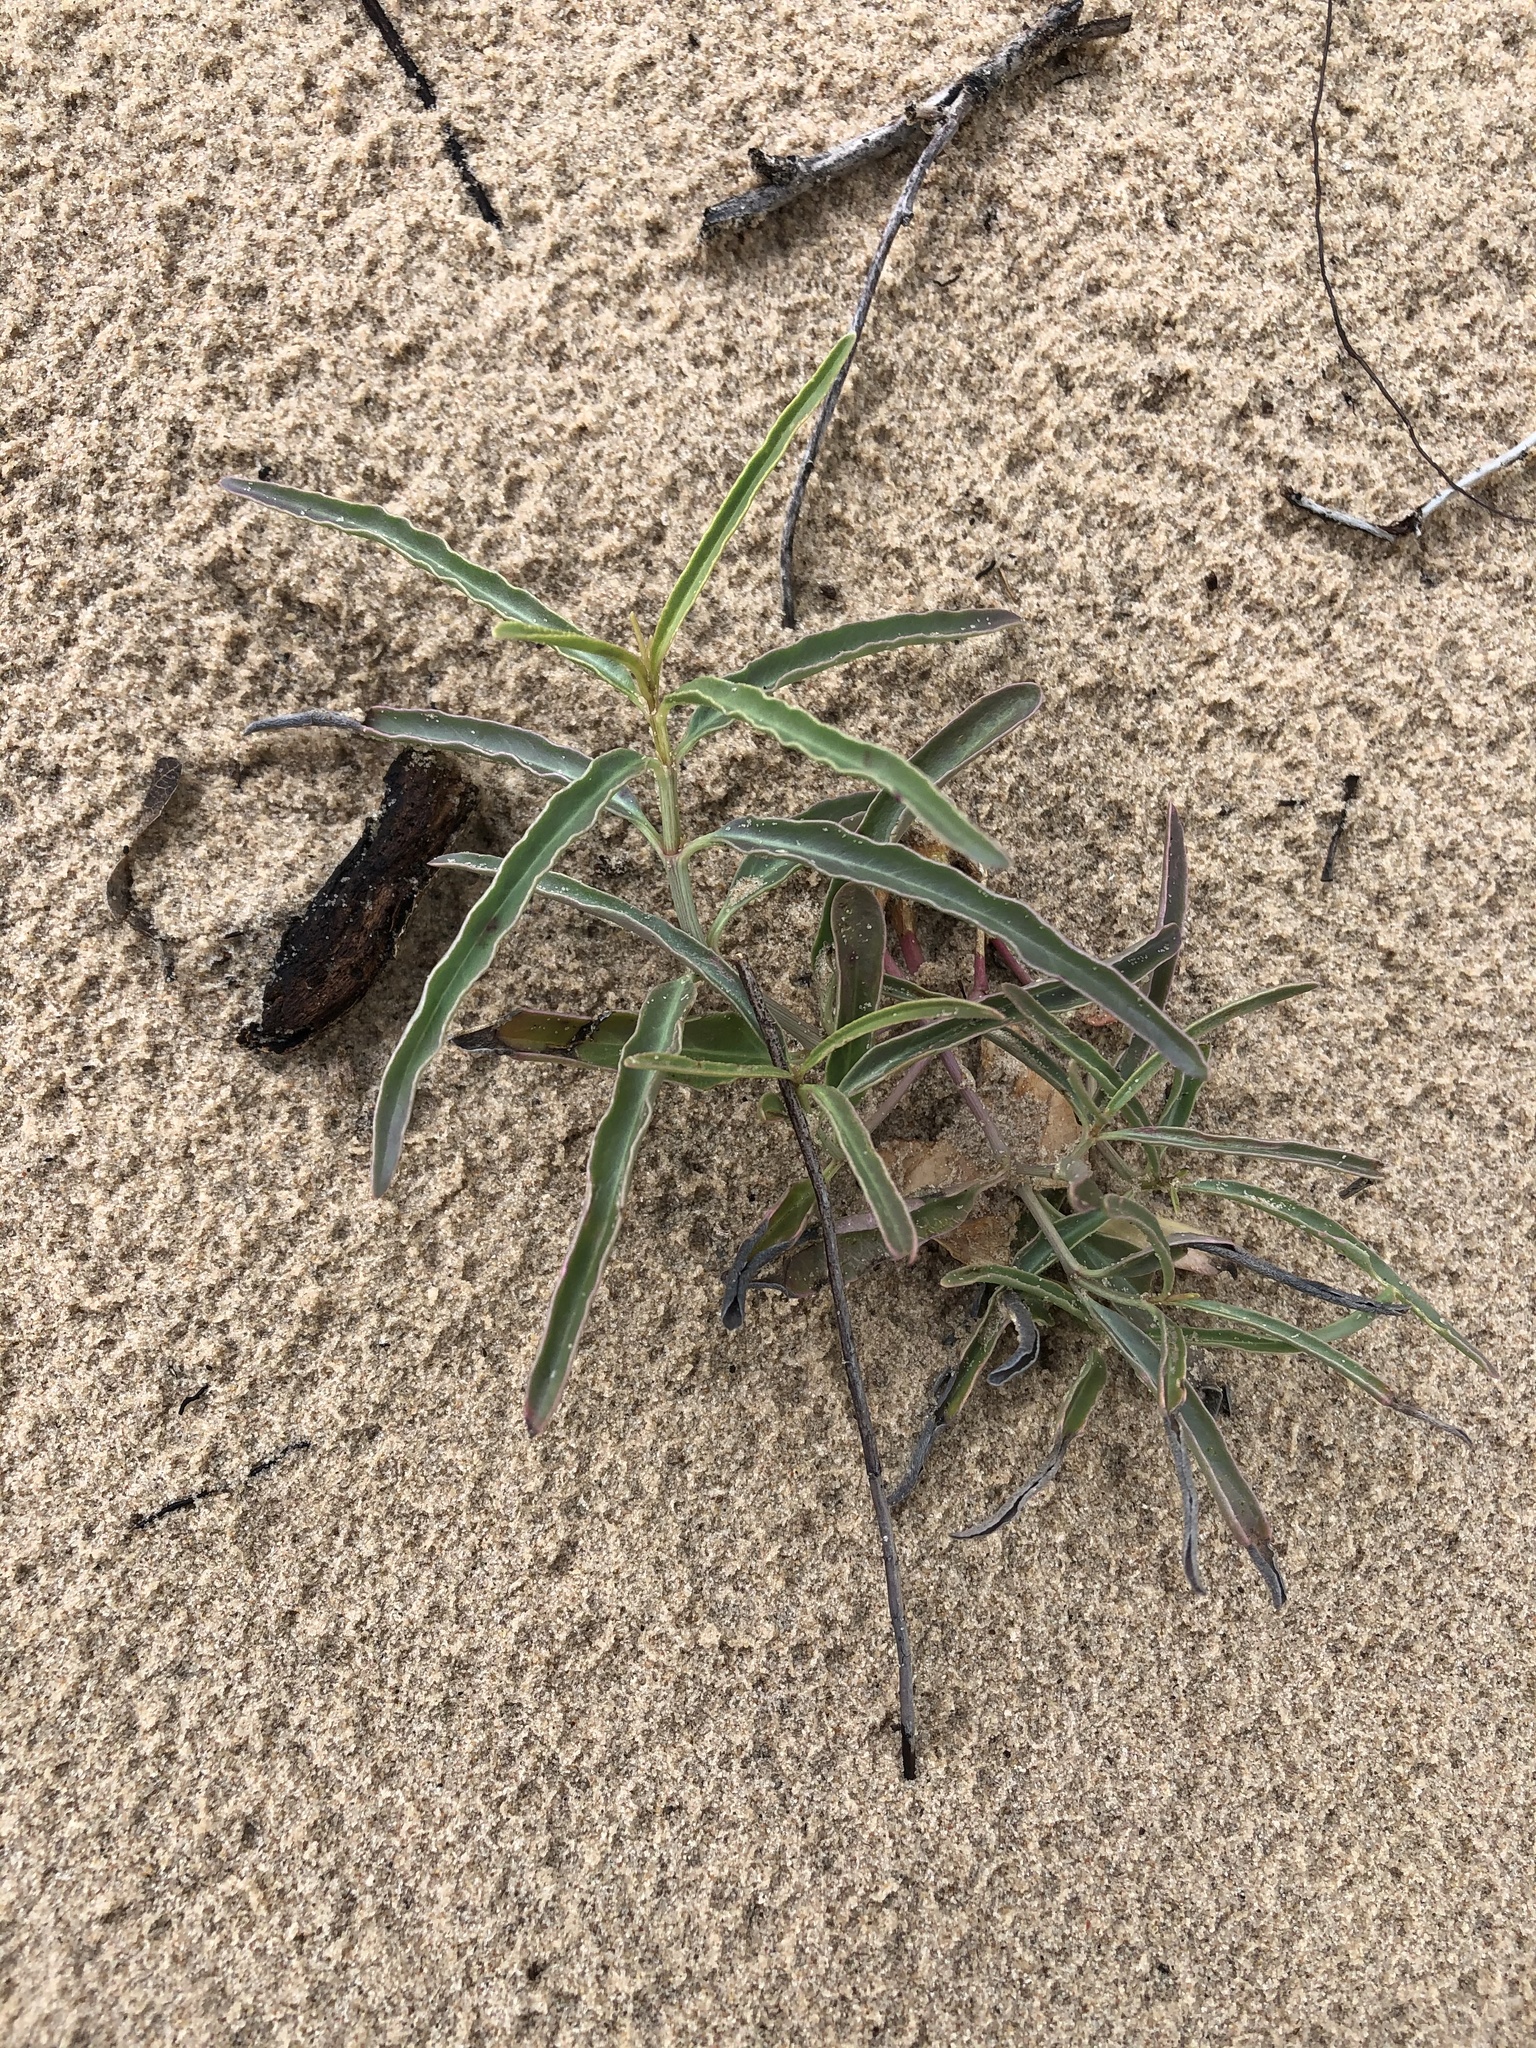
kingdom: Plantae
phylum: Tracheophyta
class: Magnoliopsida
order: Caryophyllales
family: Nyctaginaceae
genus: Mirabilis
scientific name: Mirabilis glabra
